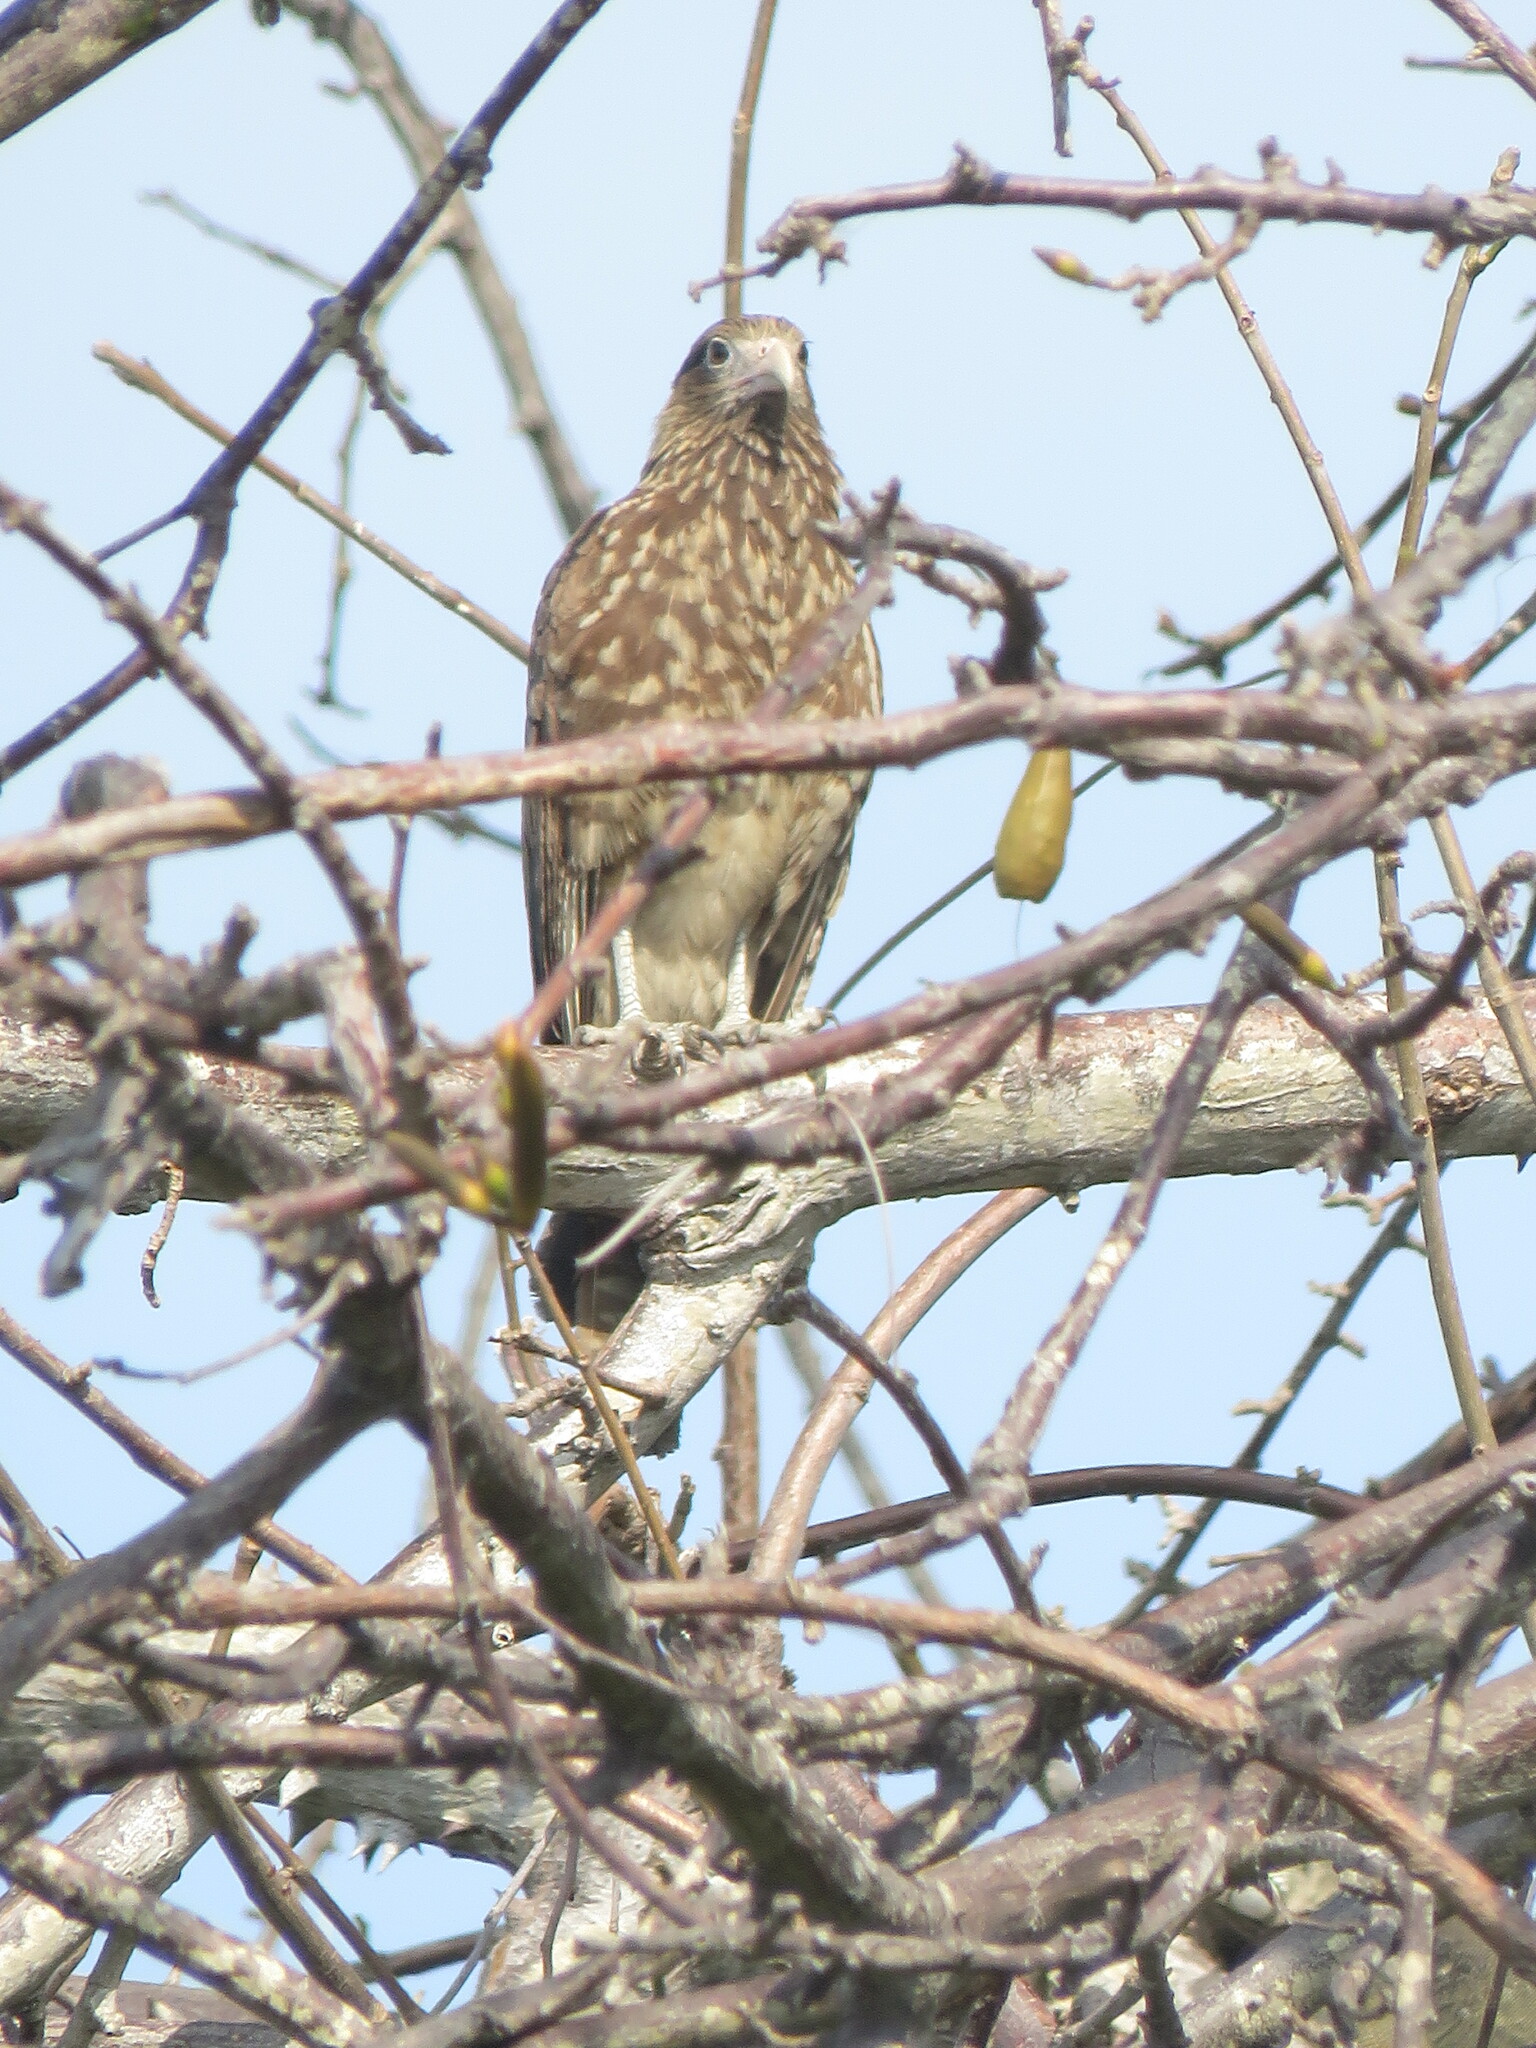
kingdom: Animalia
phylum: Chordata
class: Aves
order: Falconiformes
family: Falconidae
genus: Daptrius
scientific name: Daptrius
